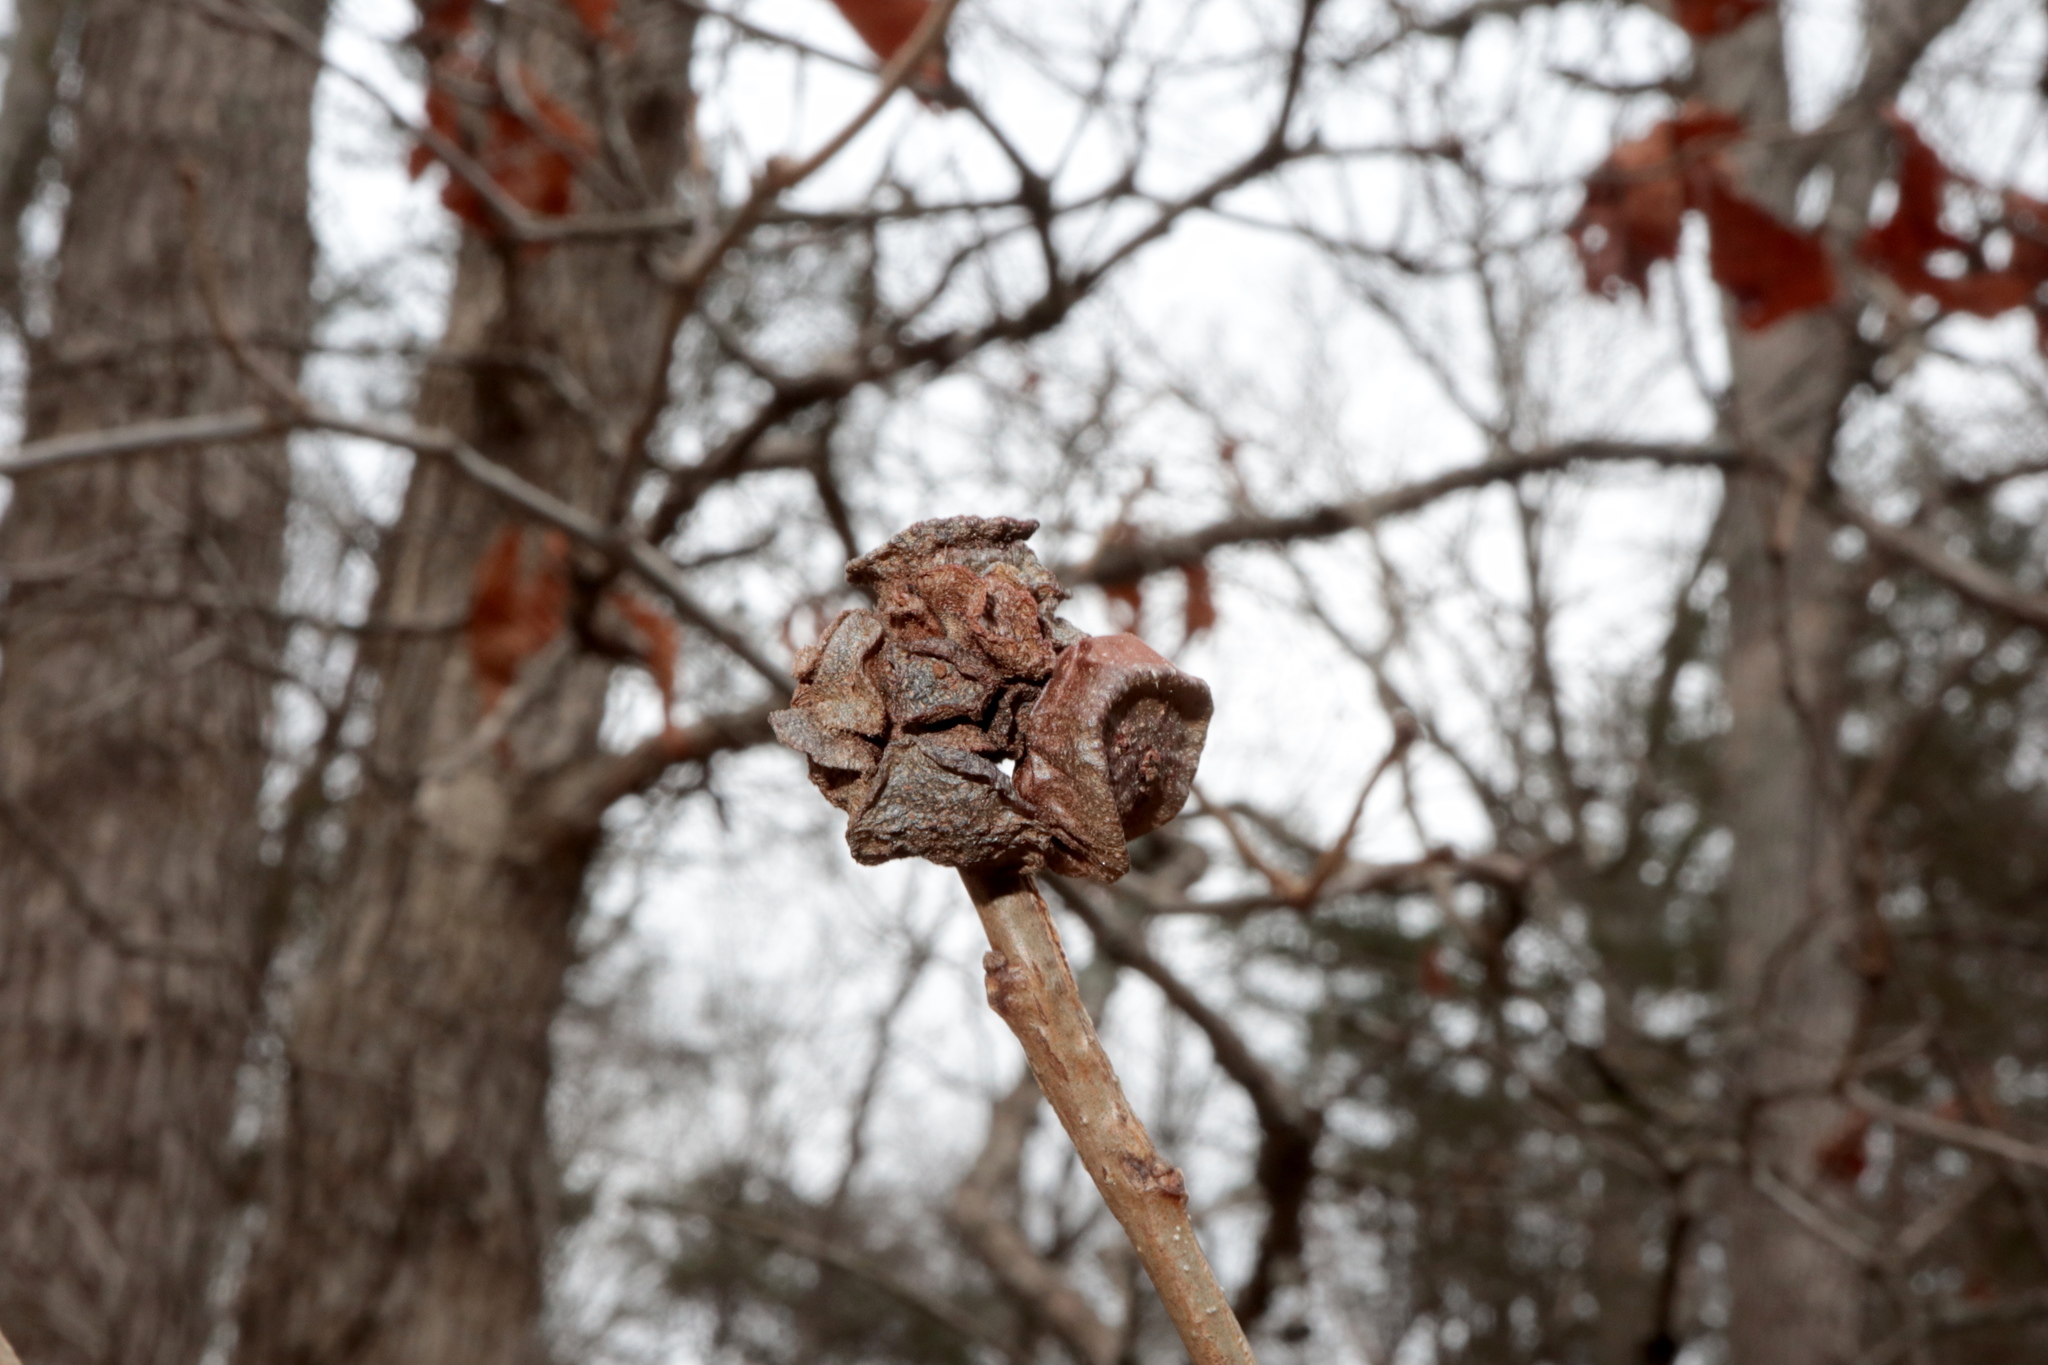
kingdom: Animalia
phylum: Arthropoda
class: Insecta
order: Hymenoptera
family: Cynipidae
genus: Andricus
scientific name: Andricus
